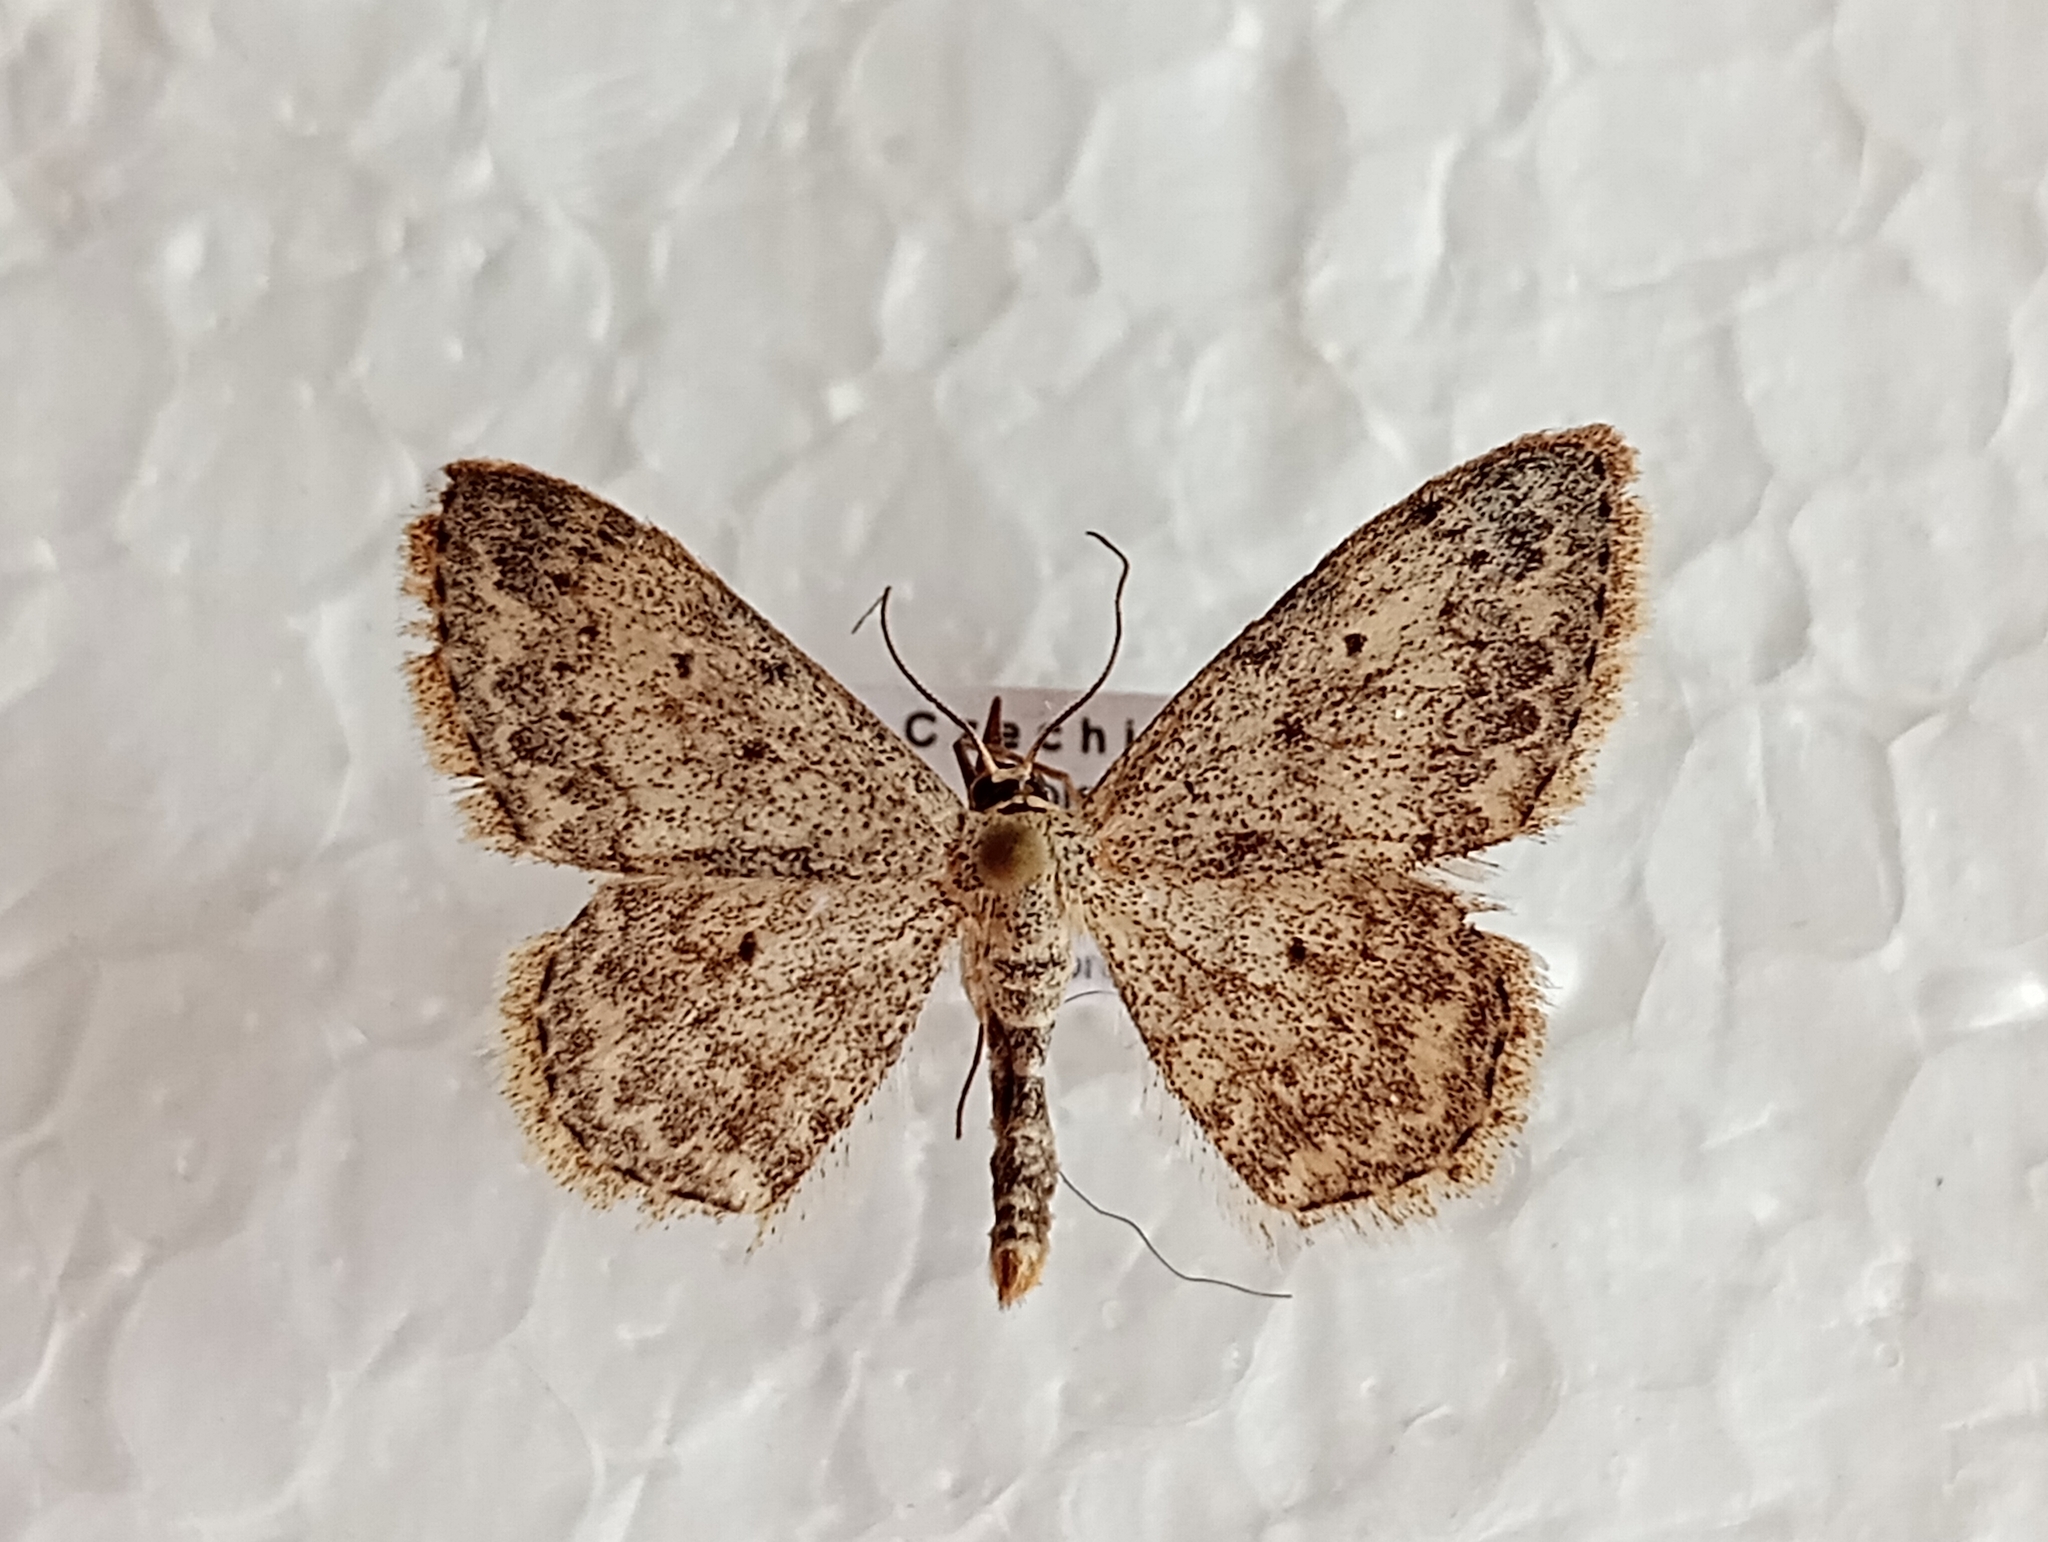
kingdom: Animalia
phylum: Arthropoda
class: Insecta
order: Lepidoptera
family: Geometridae
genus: Scopula
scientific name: Scopula marginepunctata
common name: Mullein wave
